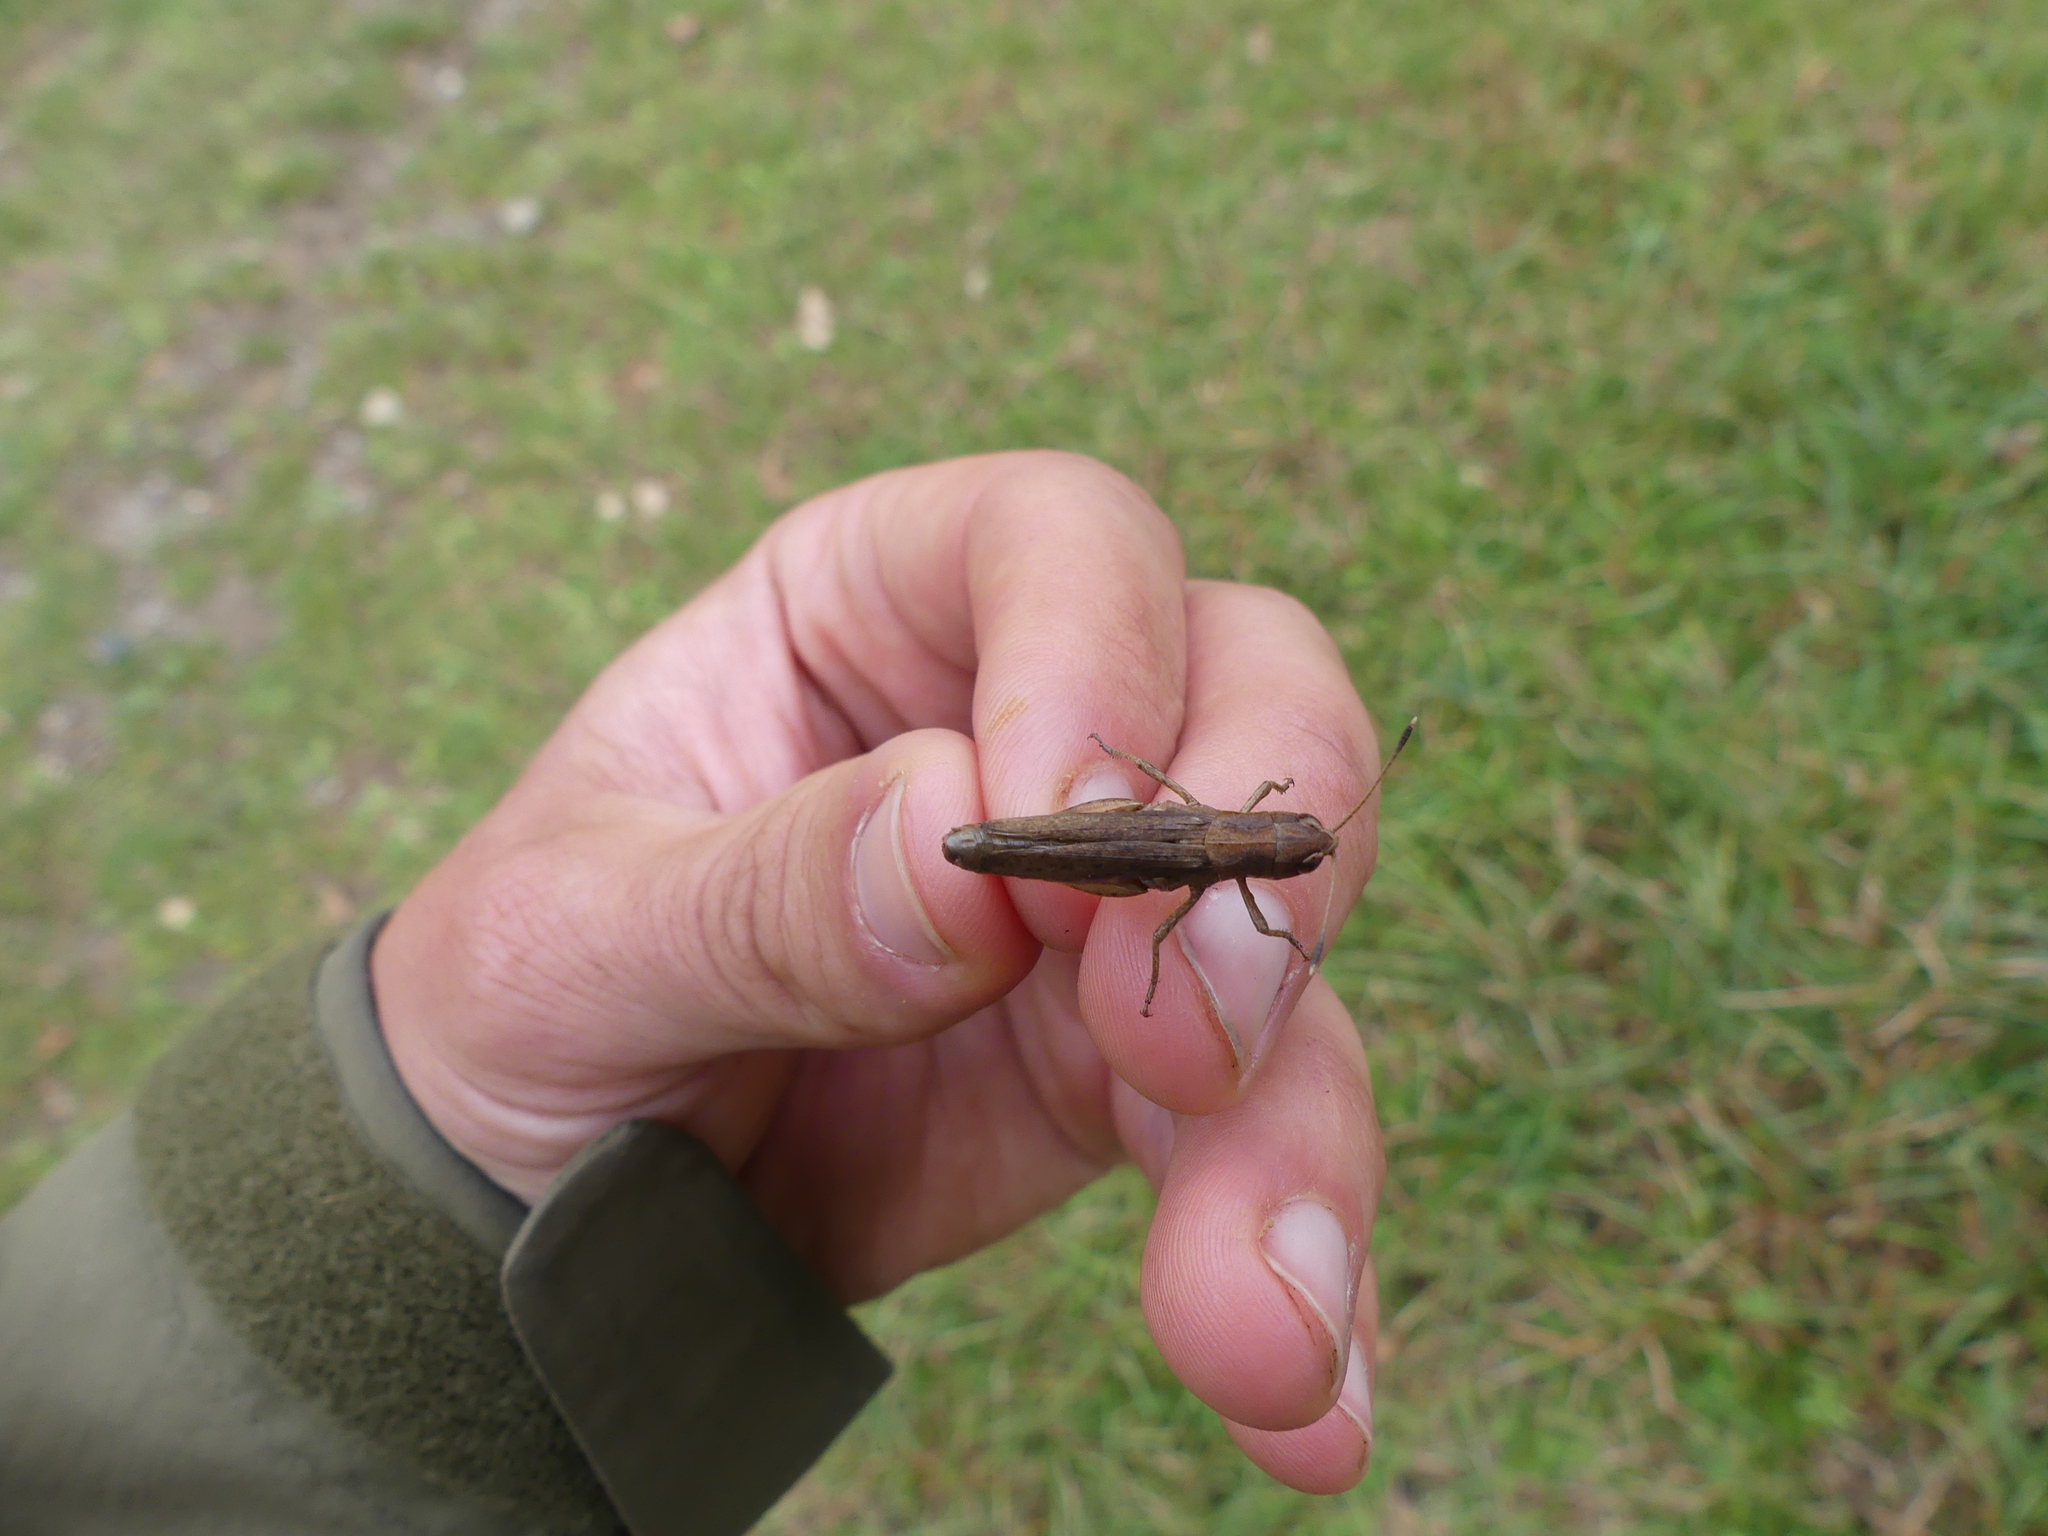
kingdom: Animalia
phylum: Arthropoda
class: Insecta
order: Orthoptera
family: Acrididae
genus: Gomphocerippus
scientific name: Gomphocerippus rufus
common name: Rufous grasshopper
